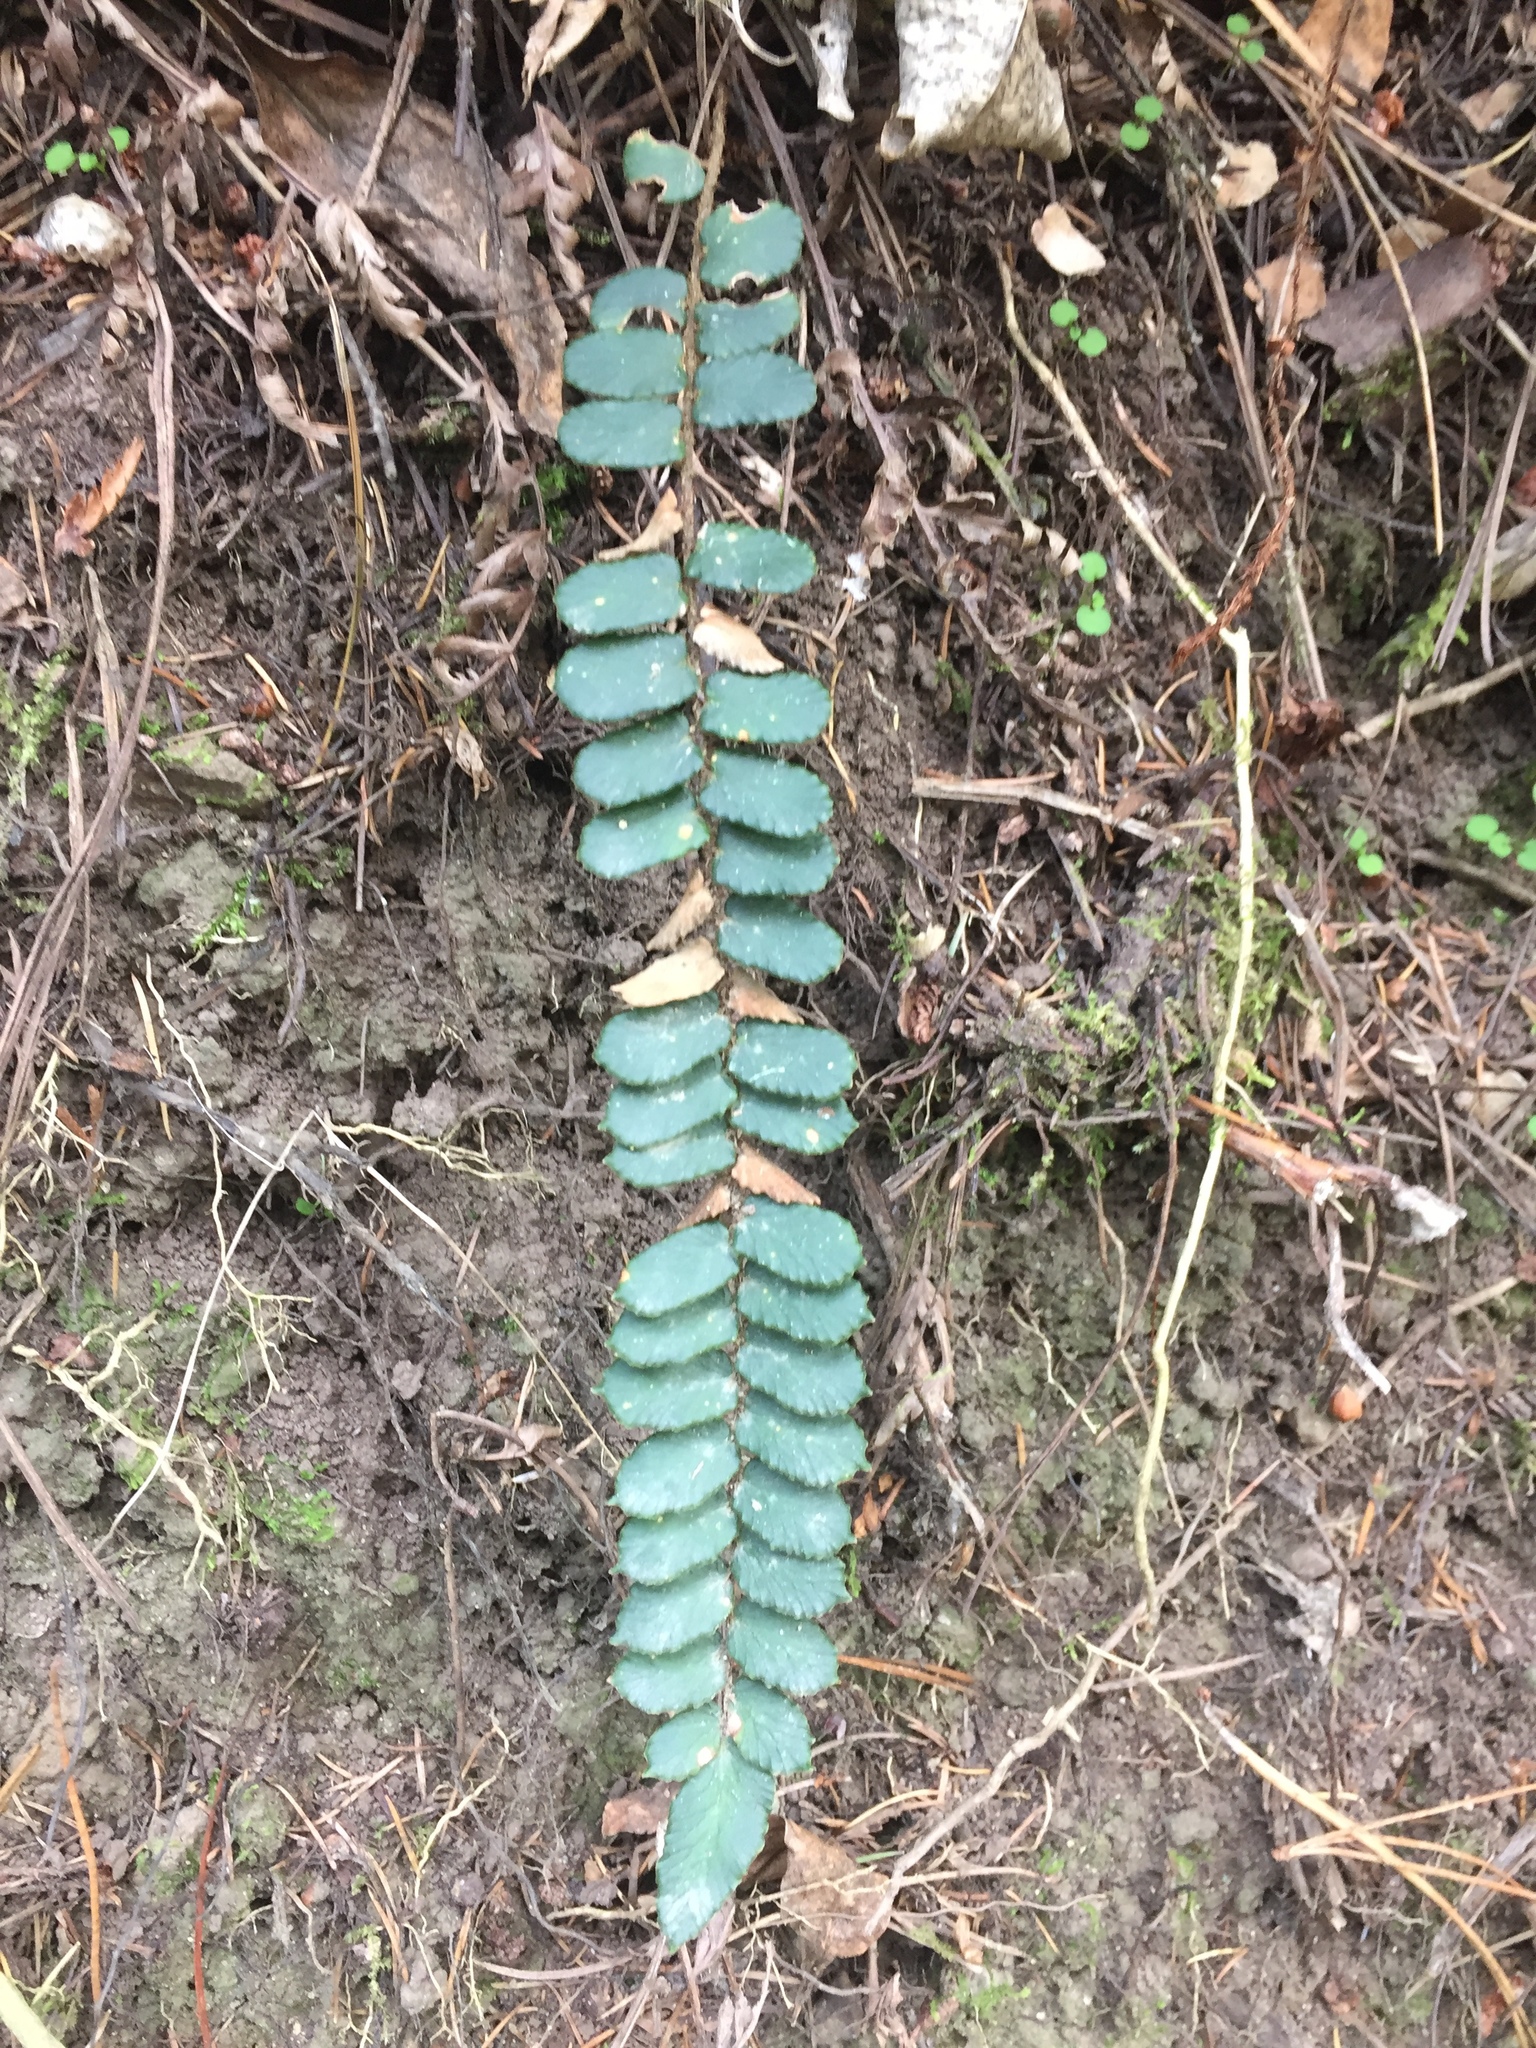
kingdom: Plantae
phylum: Tracheophyta
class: Polypodiopsida
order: Polypodiales
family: Pteridaceae
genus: Pellaea
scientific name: Pellaea rotundifolia
